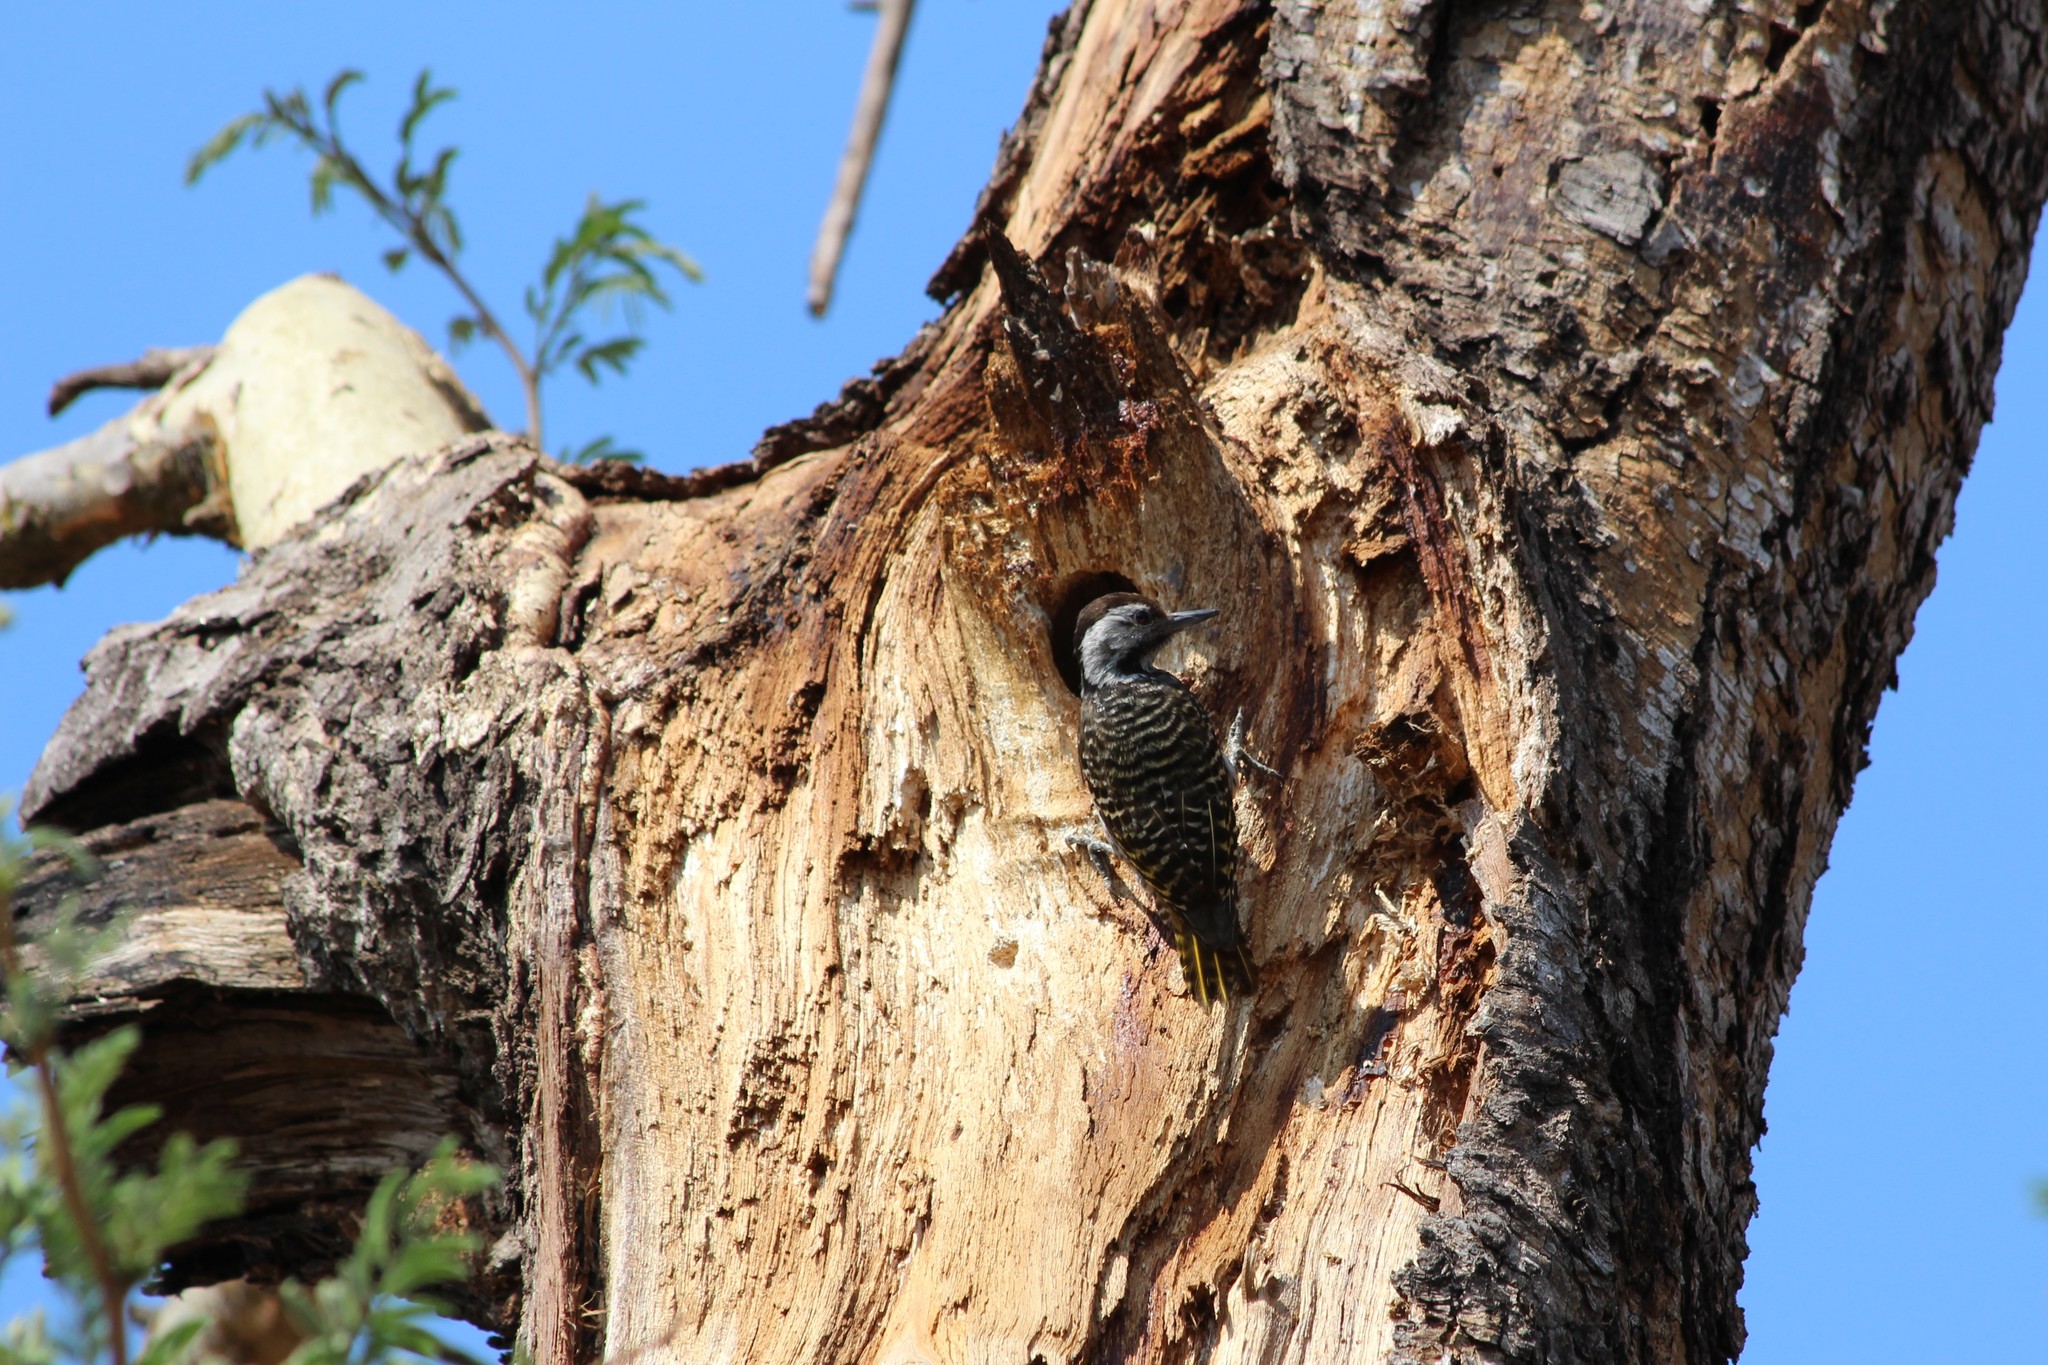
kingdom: Animalia
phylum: Chordata
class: Aves
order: Piciformes
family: Picidae
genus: Dendropicos
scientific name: Dendropicos fuscescens
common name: Cardinal woodpecker
